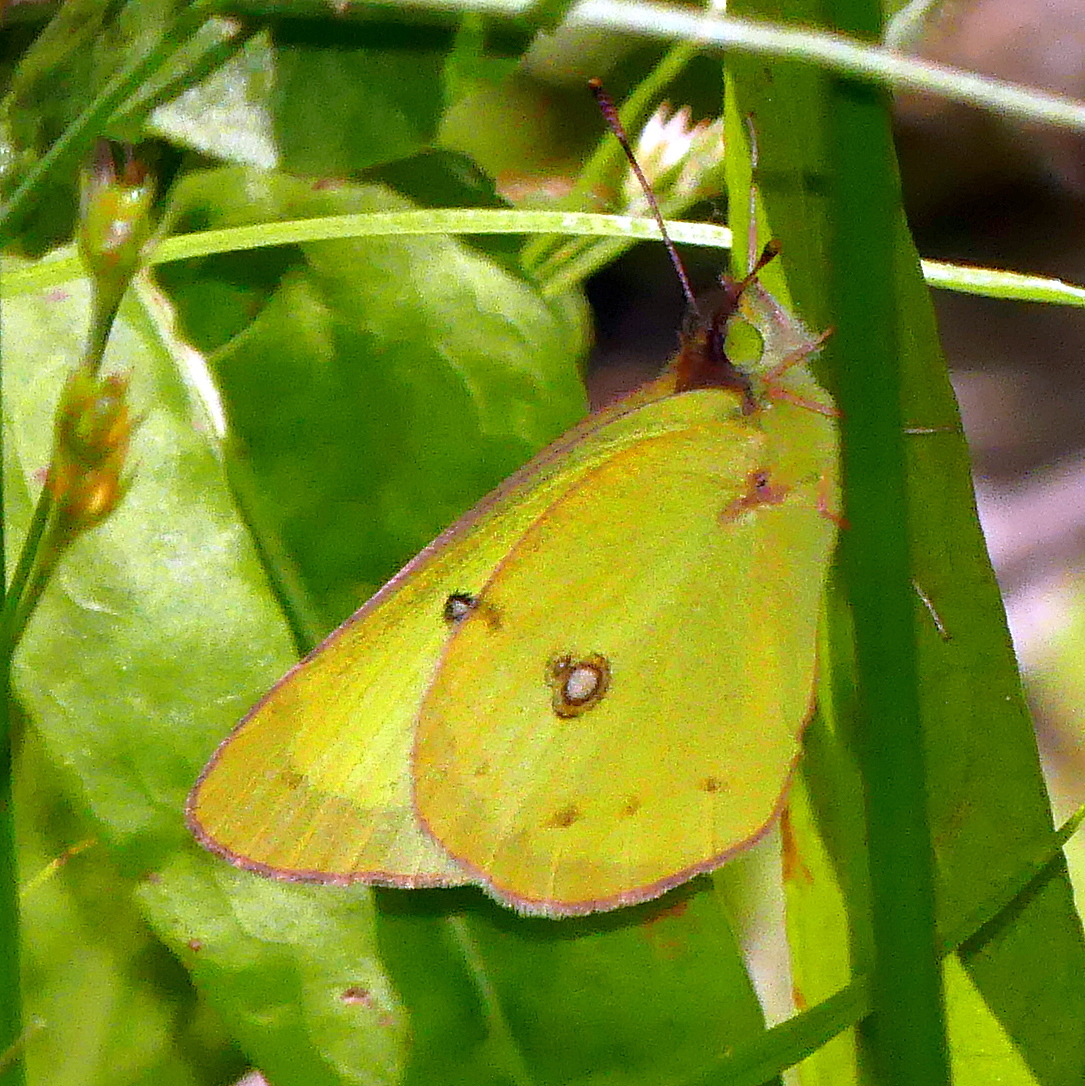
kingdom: Animalia
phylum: Arthropoda
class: Insecta
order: Lepidoptera
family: Pieridae
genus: Colias
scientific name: Colias philodice
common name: Clouded sulphur
